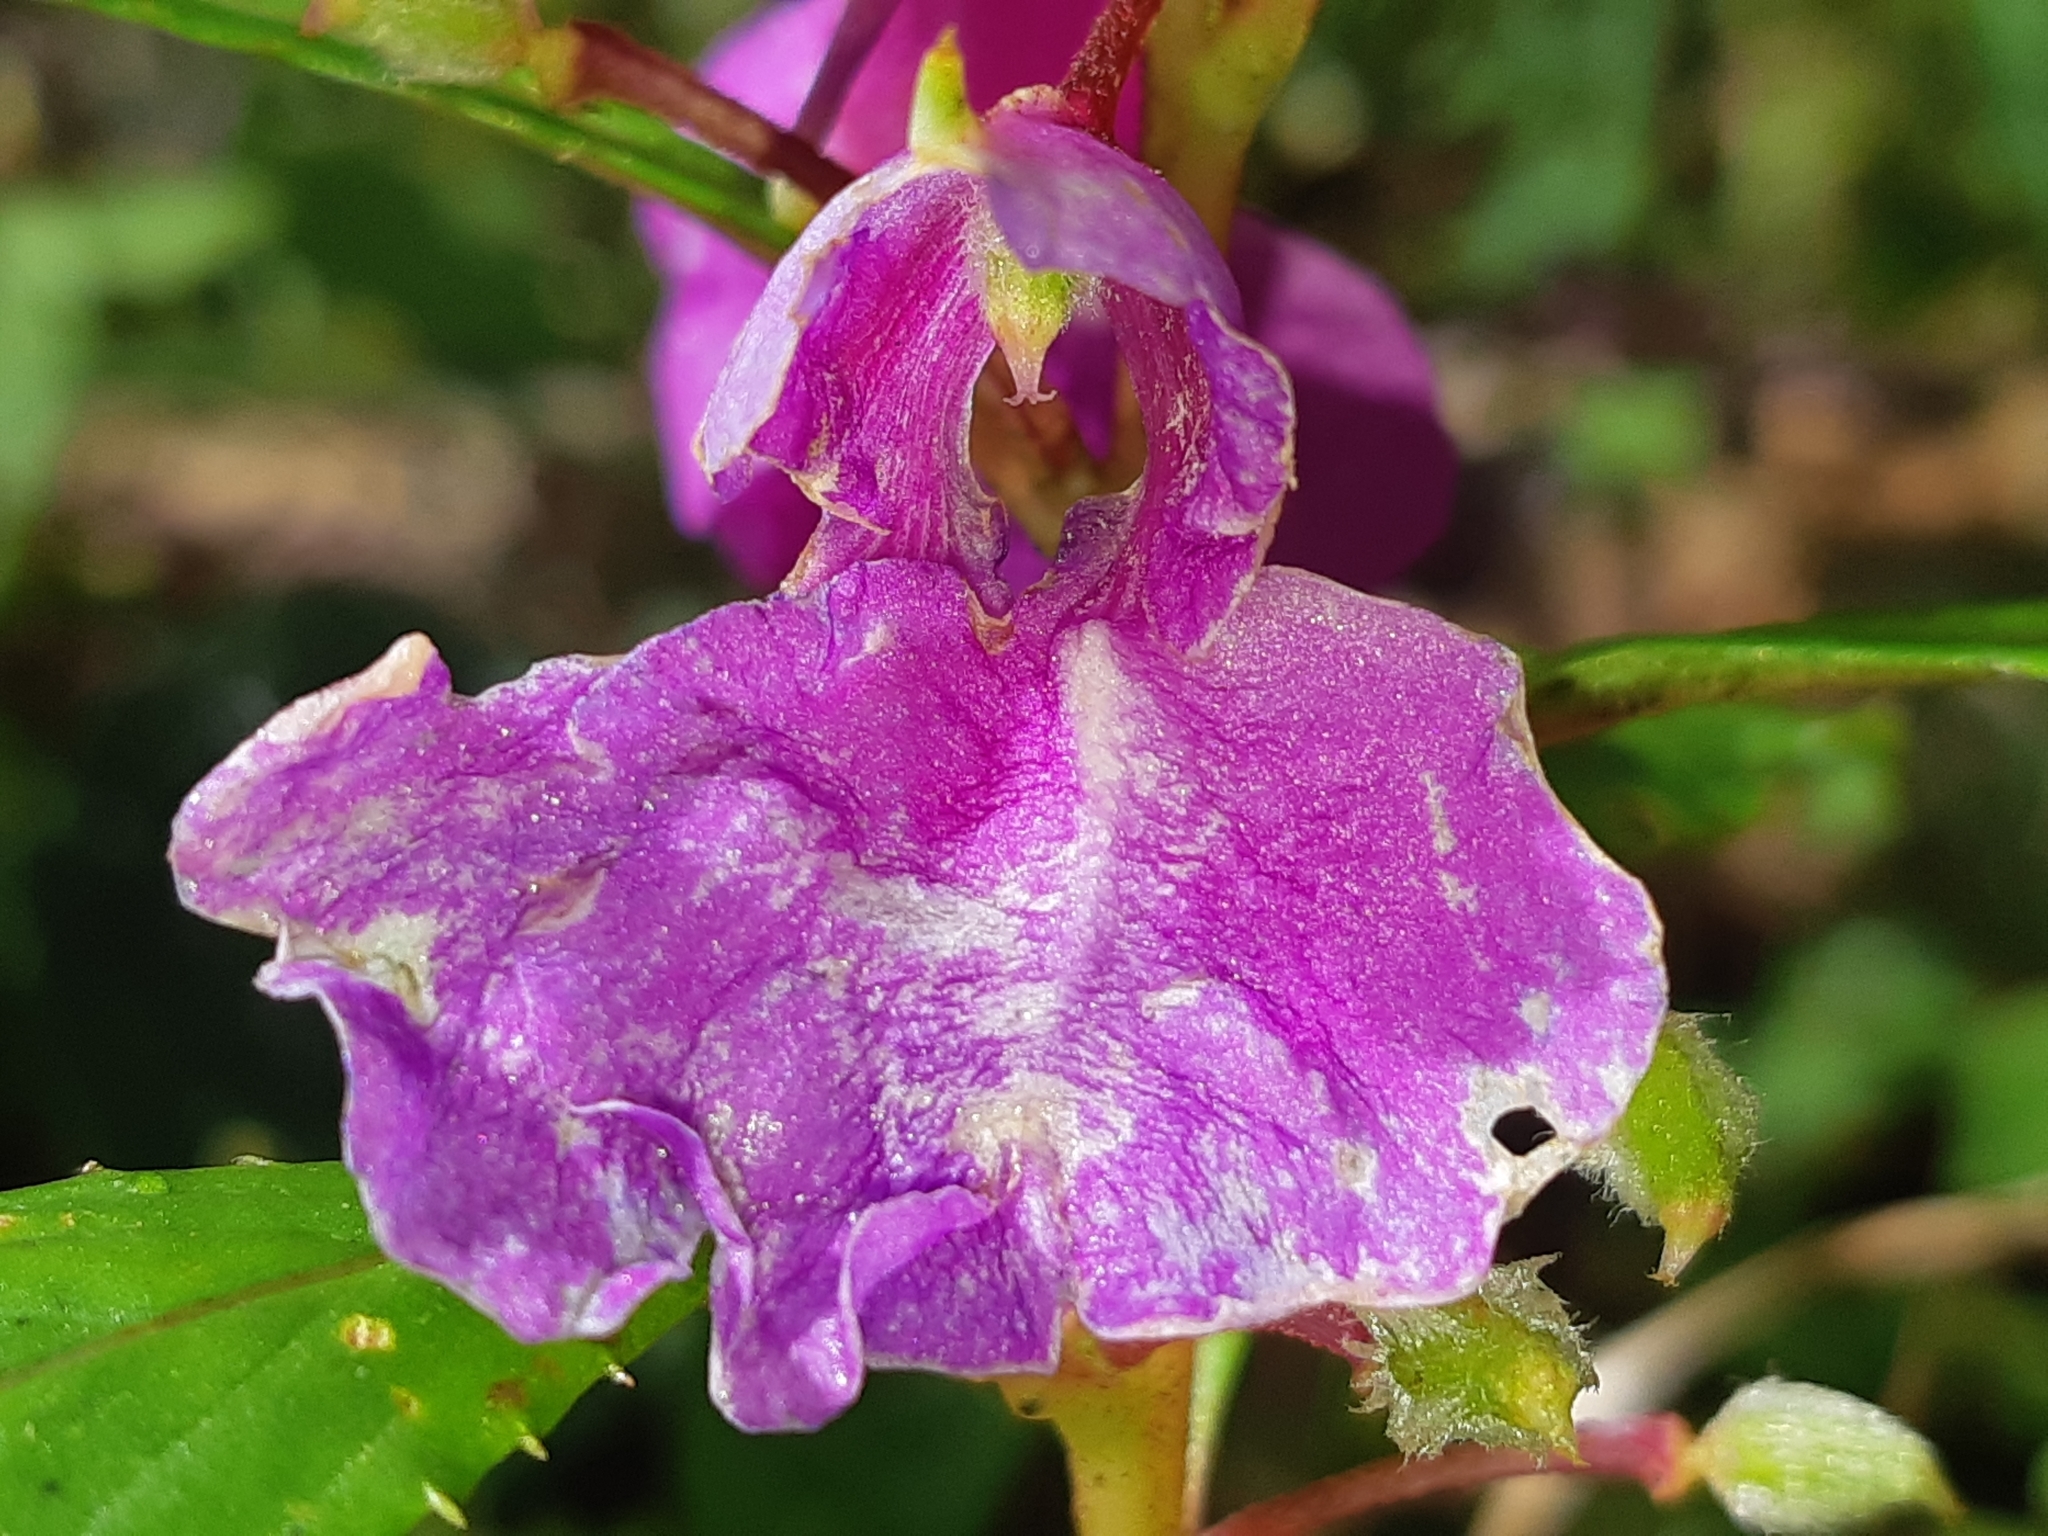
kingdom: Plantae
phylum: Tracheophyta
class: Magnoliopsida
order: Ericales
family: Balsaminaceae
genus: Impatiens
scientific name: Impatiens balsamina
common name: Balsam
